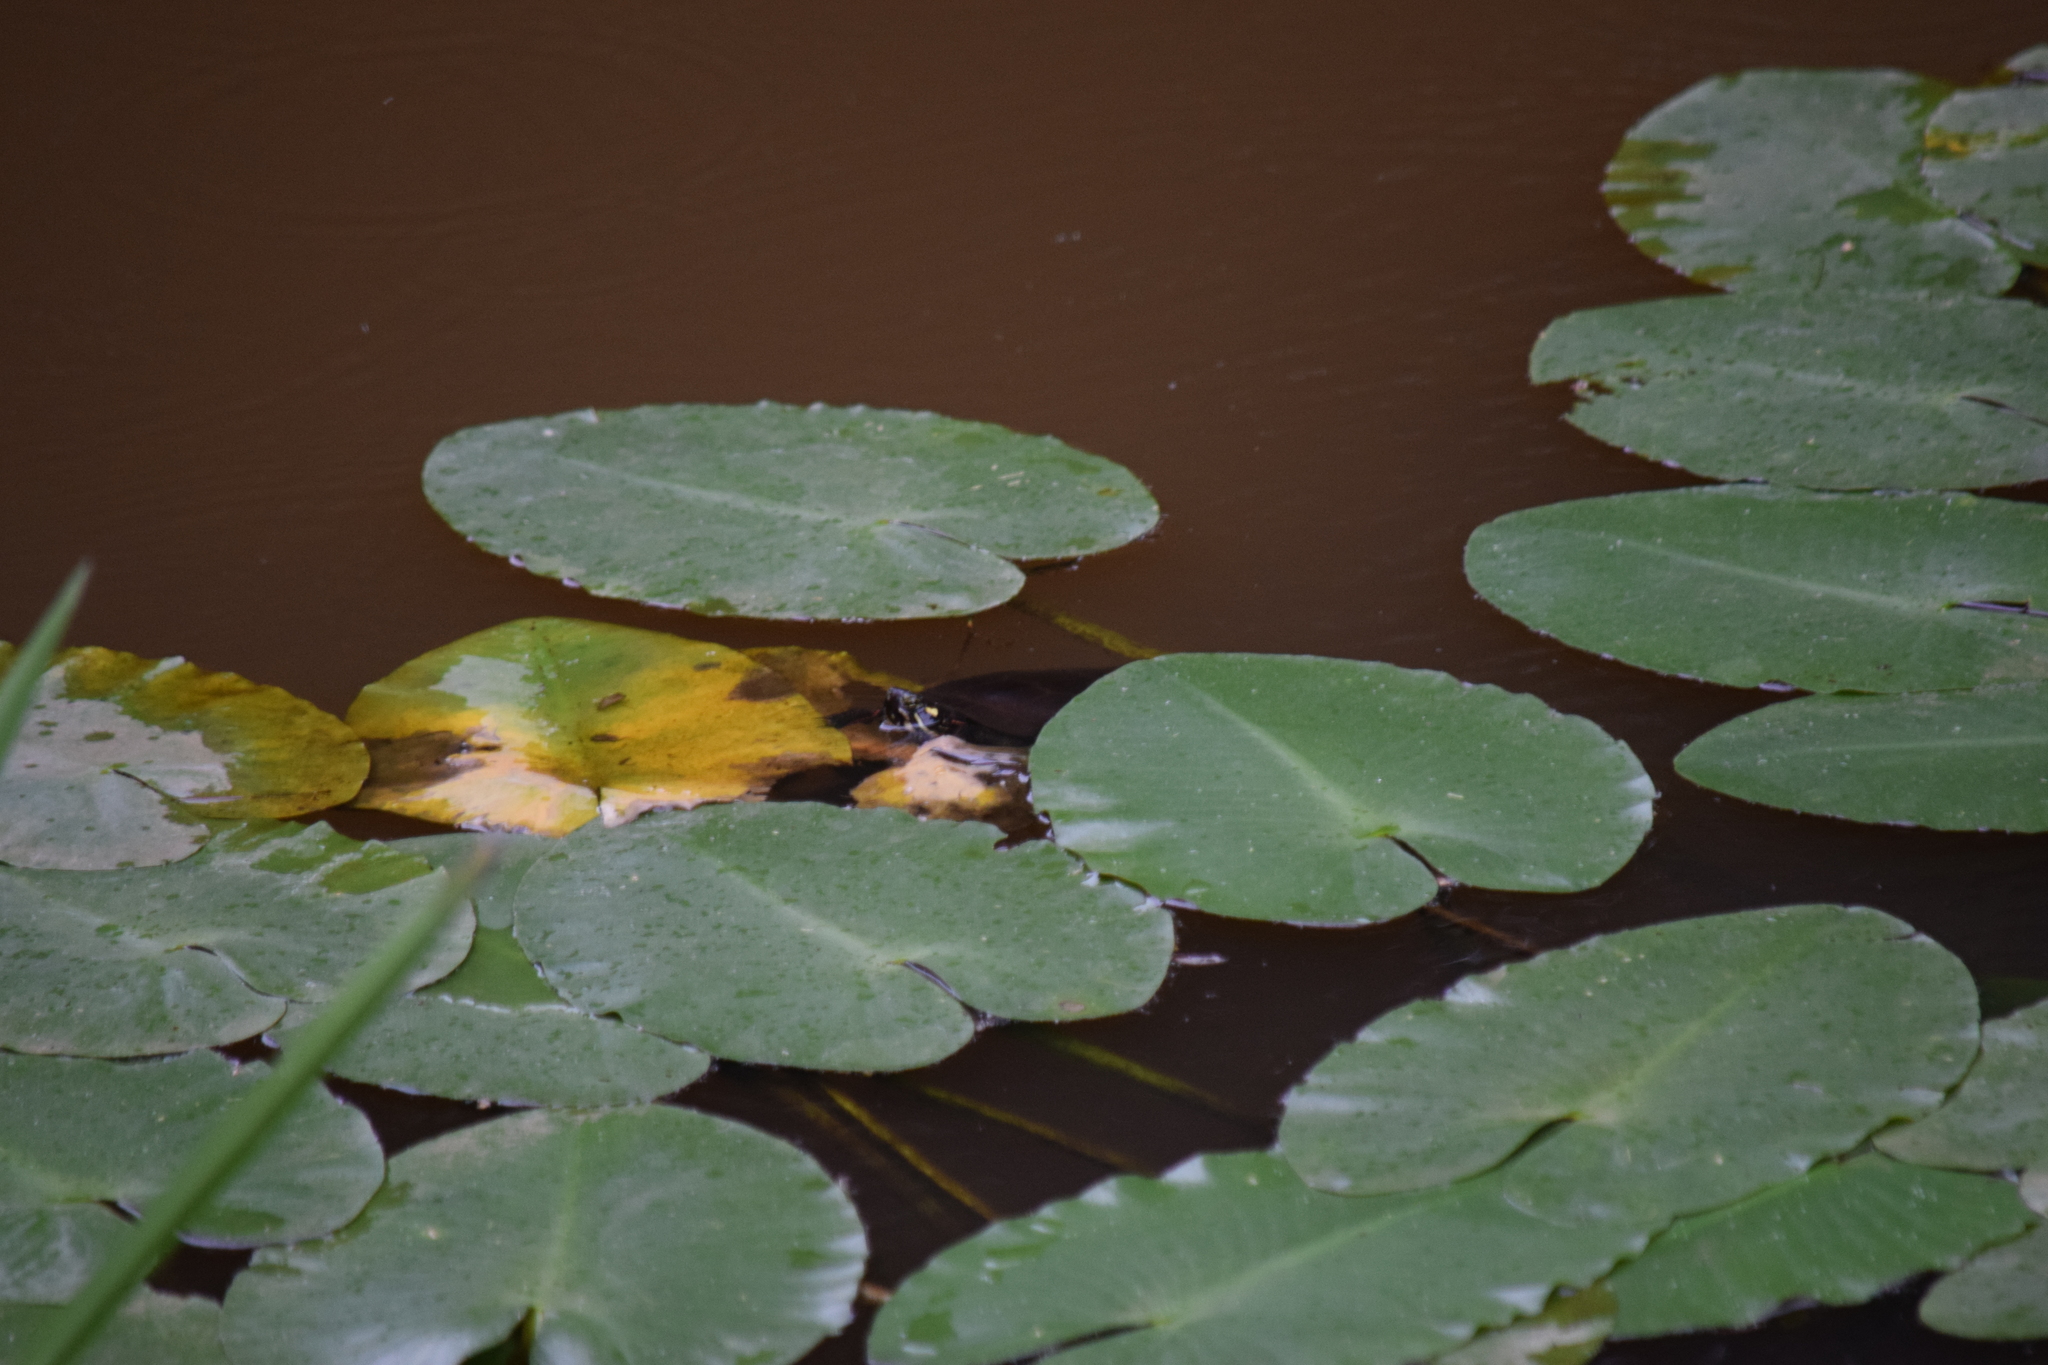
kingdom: Animalia
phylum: Chordata
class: Testudines
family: Emydidae
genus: Chrysemys
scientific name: Chrysemys picta
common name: Painted turtle
